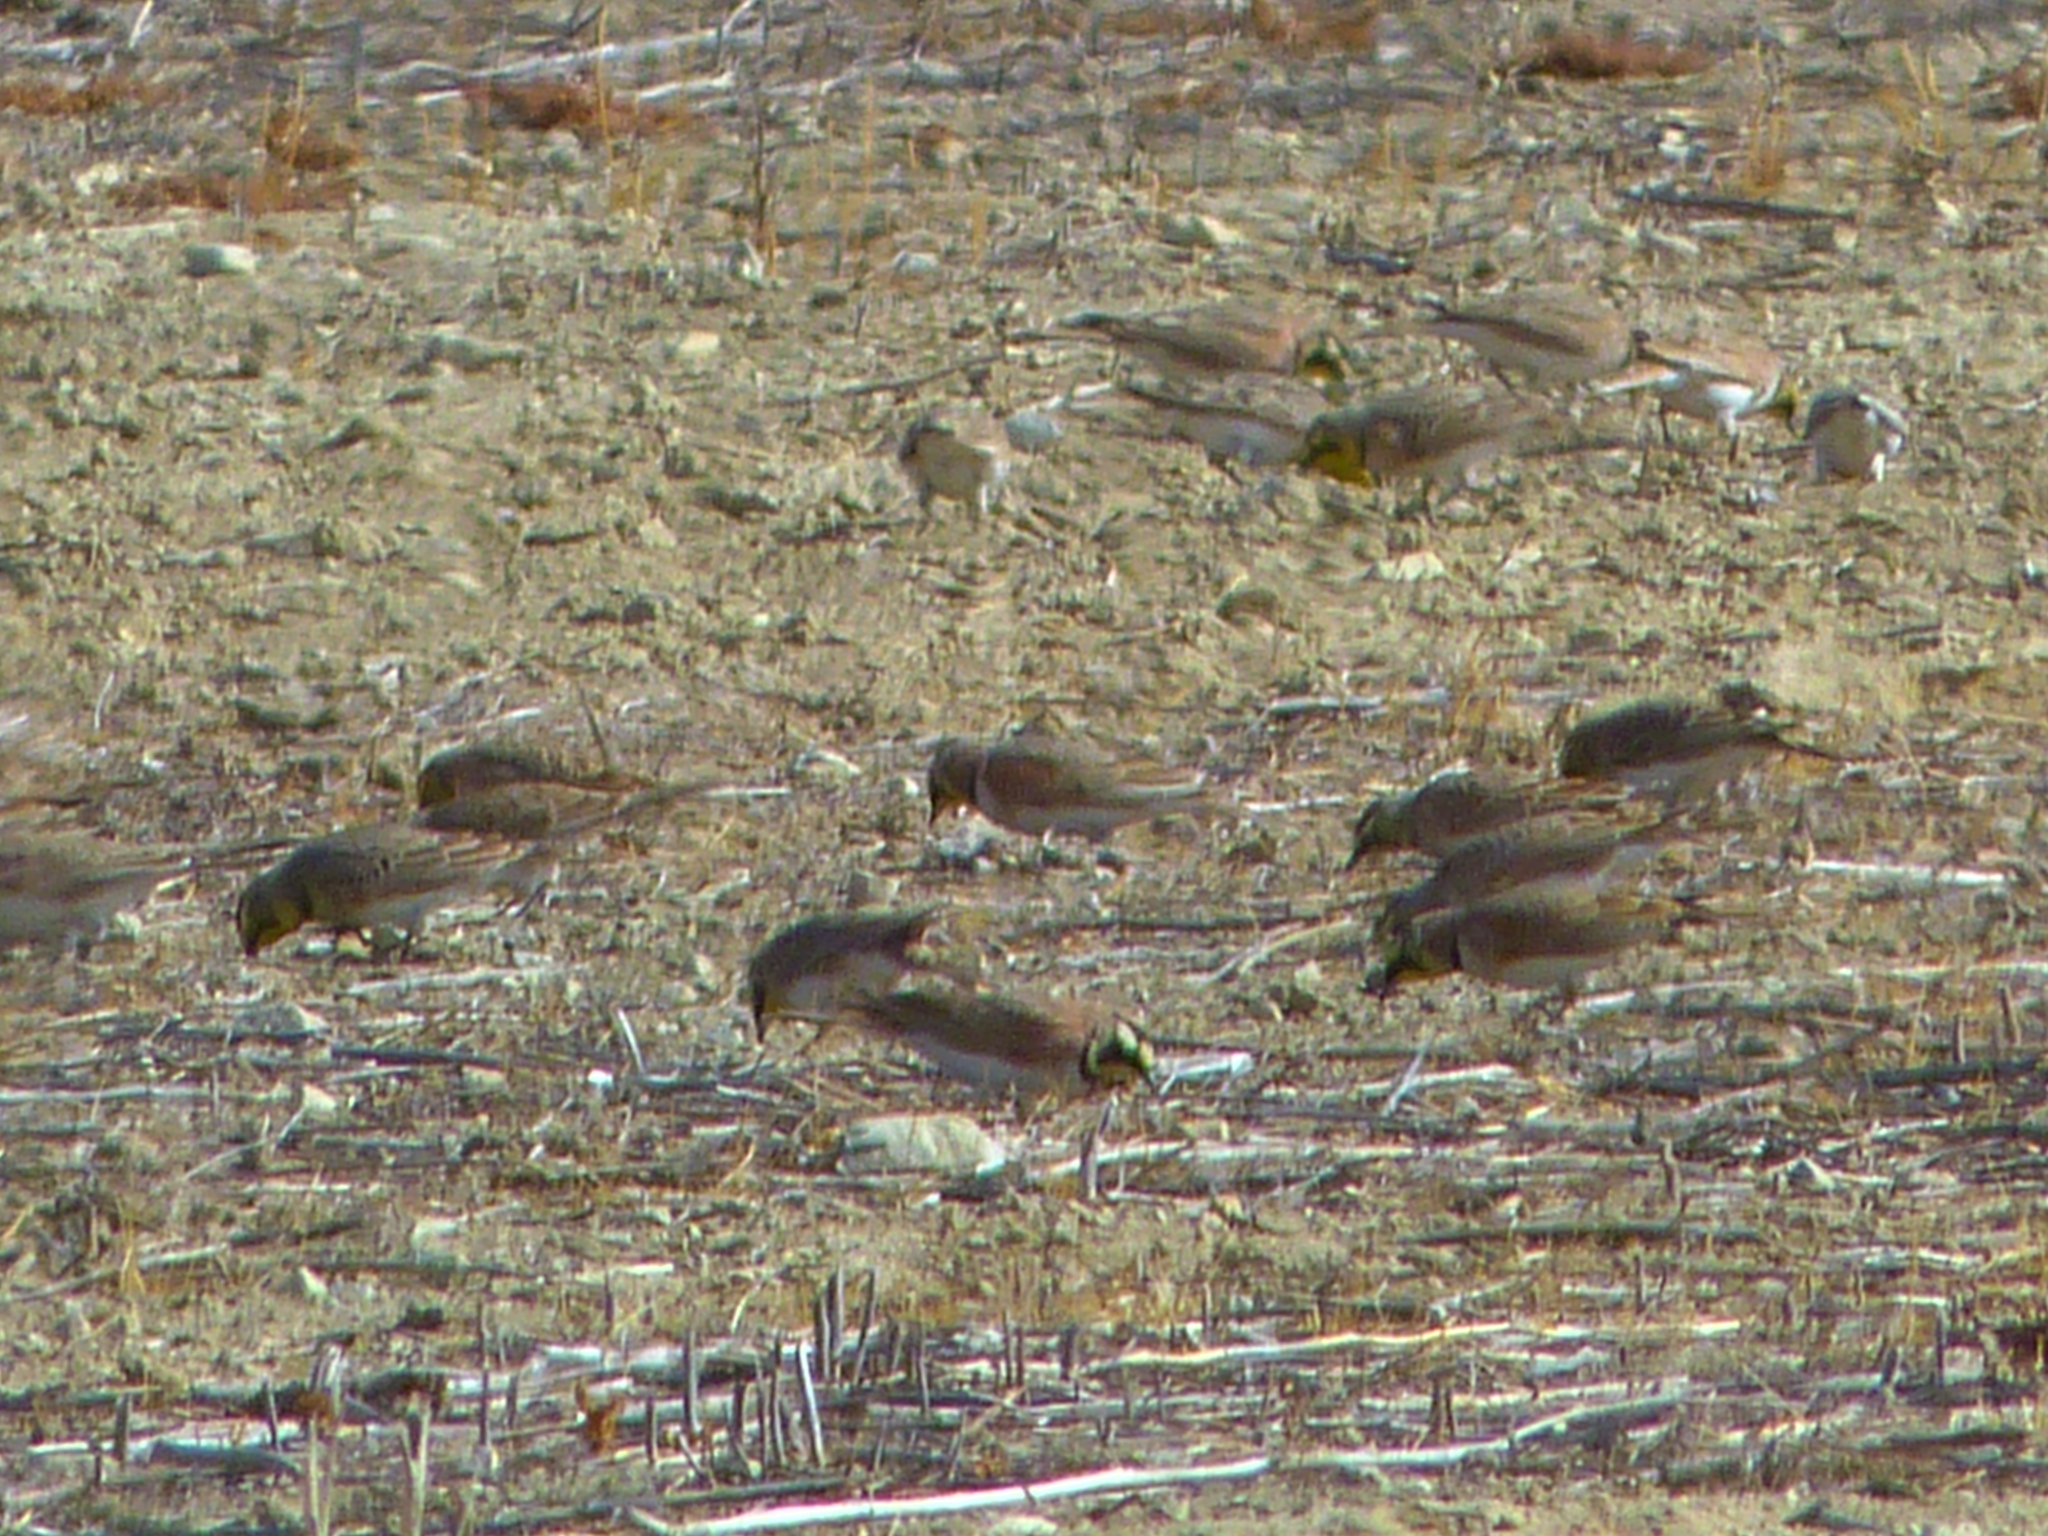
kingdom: Animalia
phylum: Chordata
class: Aves
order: Passeriformes
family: Alaudidae
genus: Eremophila
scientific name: Eremophila alpestris
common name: Horned lark
